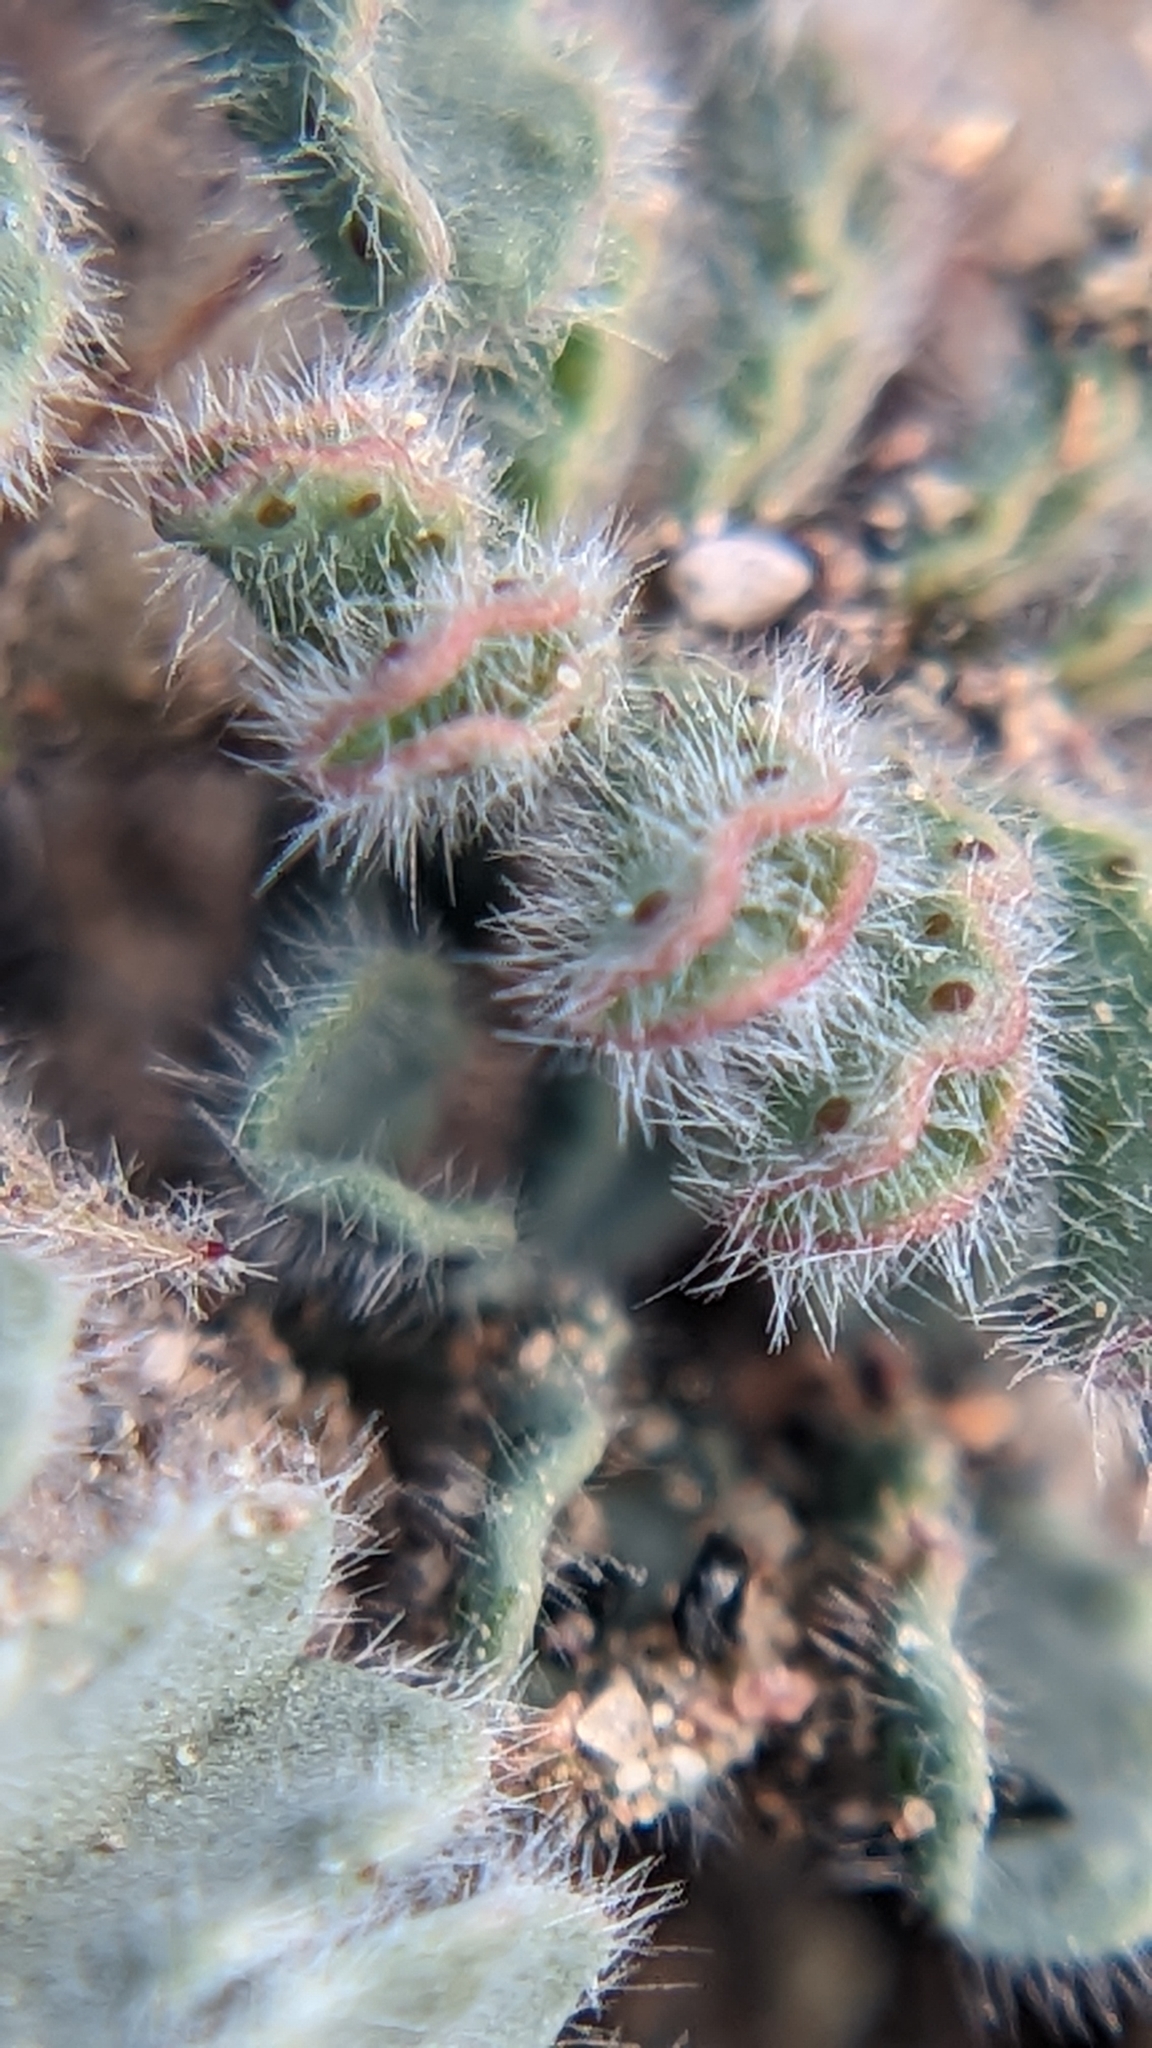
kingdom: Plantae
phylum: Tracheophyta
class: Magnoliopsida
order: Fabales
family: Fabaceae
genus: Dalea
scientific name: Dalea mollissima
